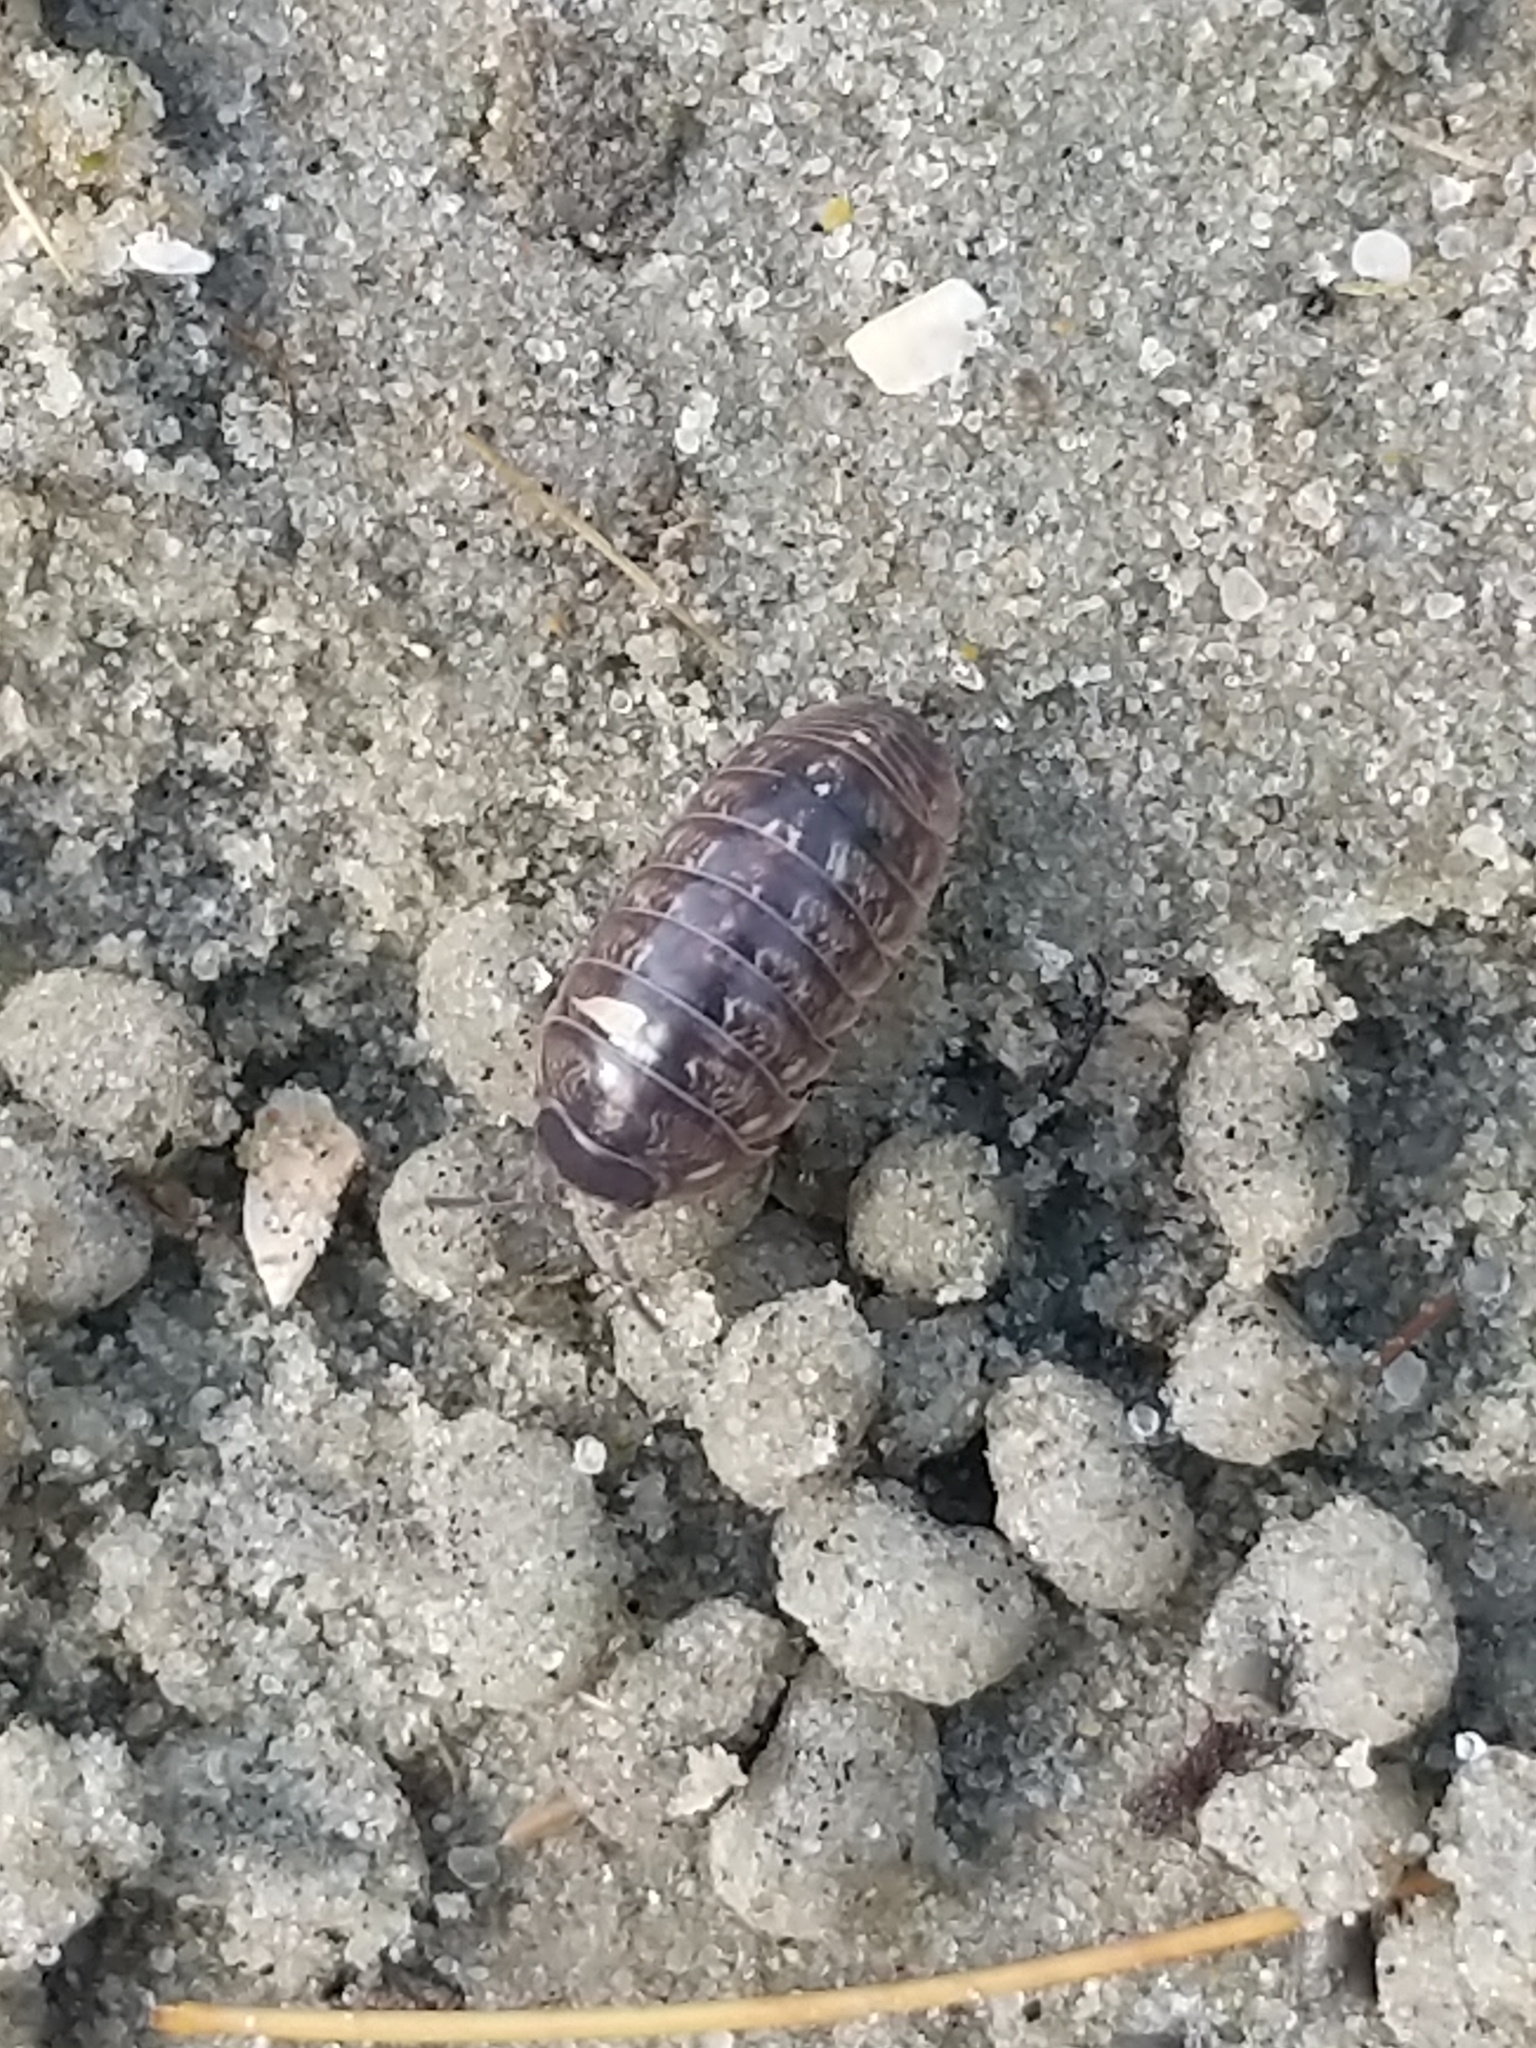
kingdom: Animalia
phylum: Arthropoda
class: Malacostraca
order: Isopoda
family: Armadillidiidae
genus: Armadillidium
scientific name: Armadillidium vulgare
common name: Common pill woodlouse
